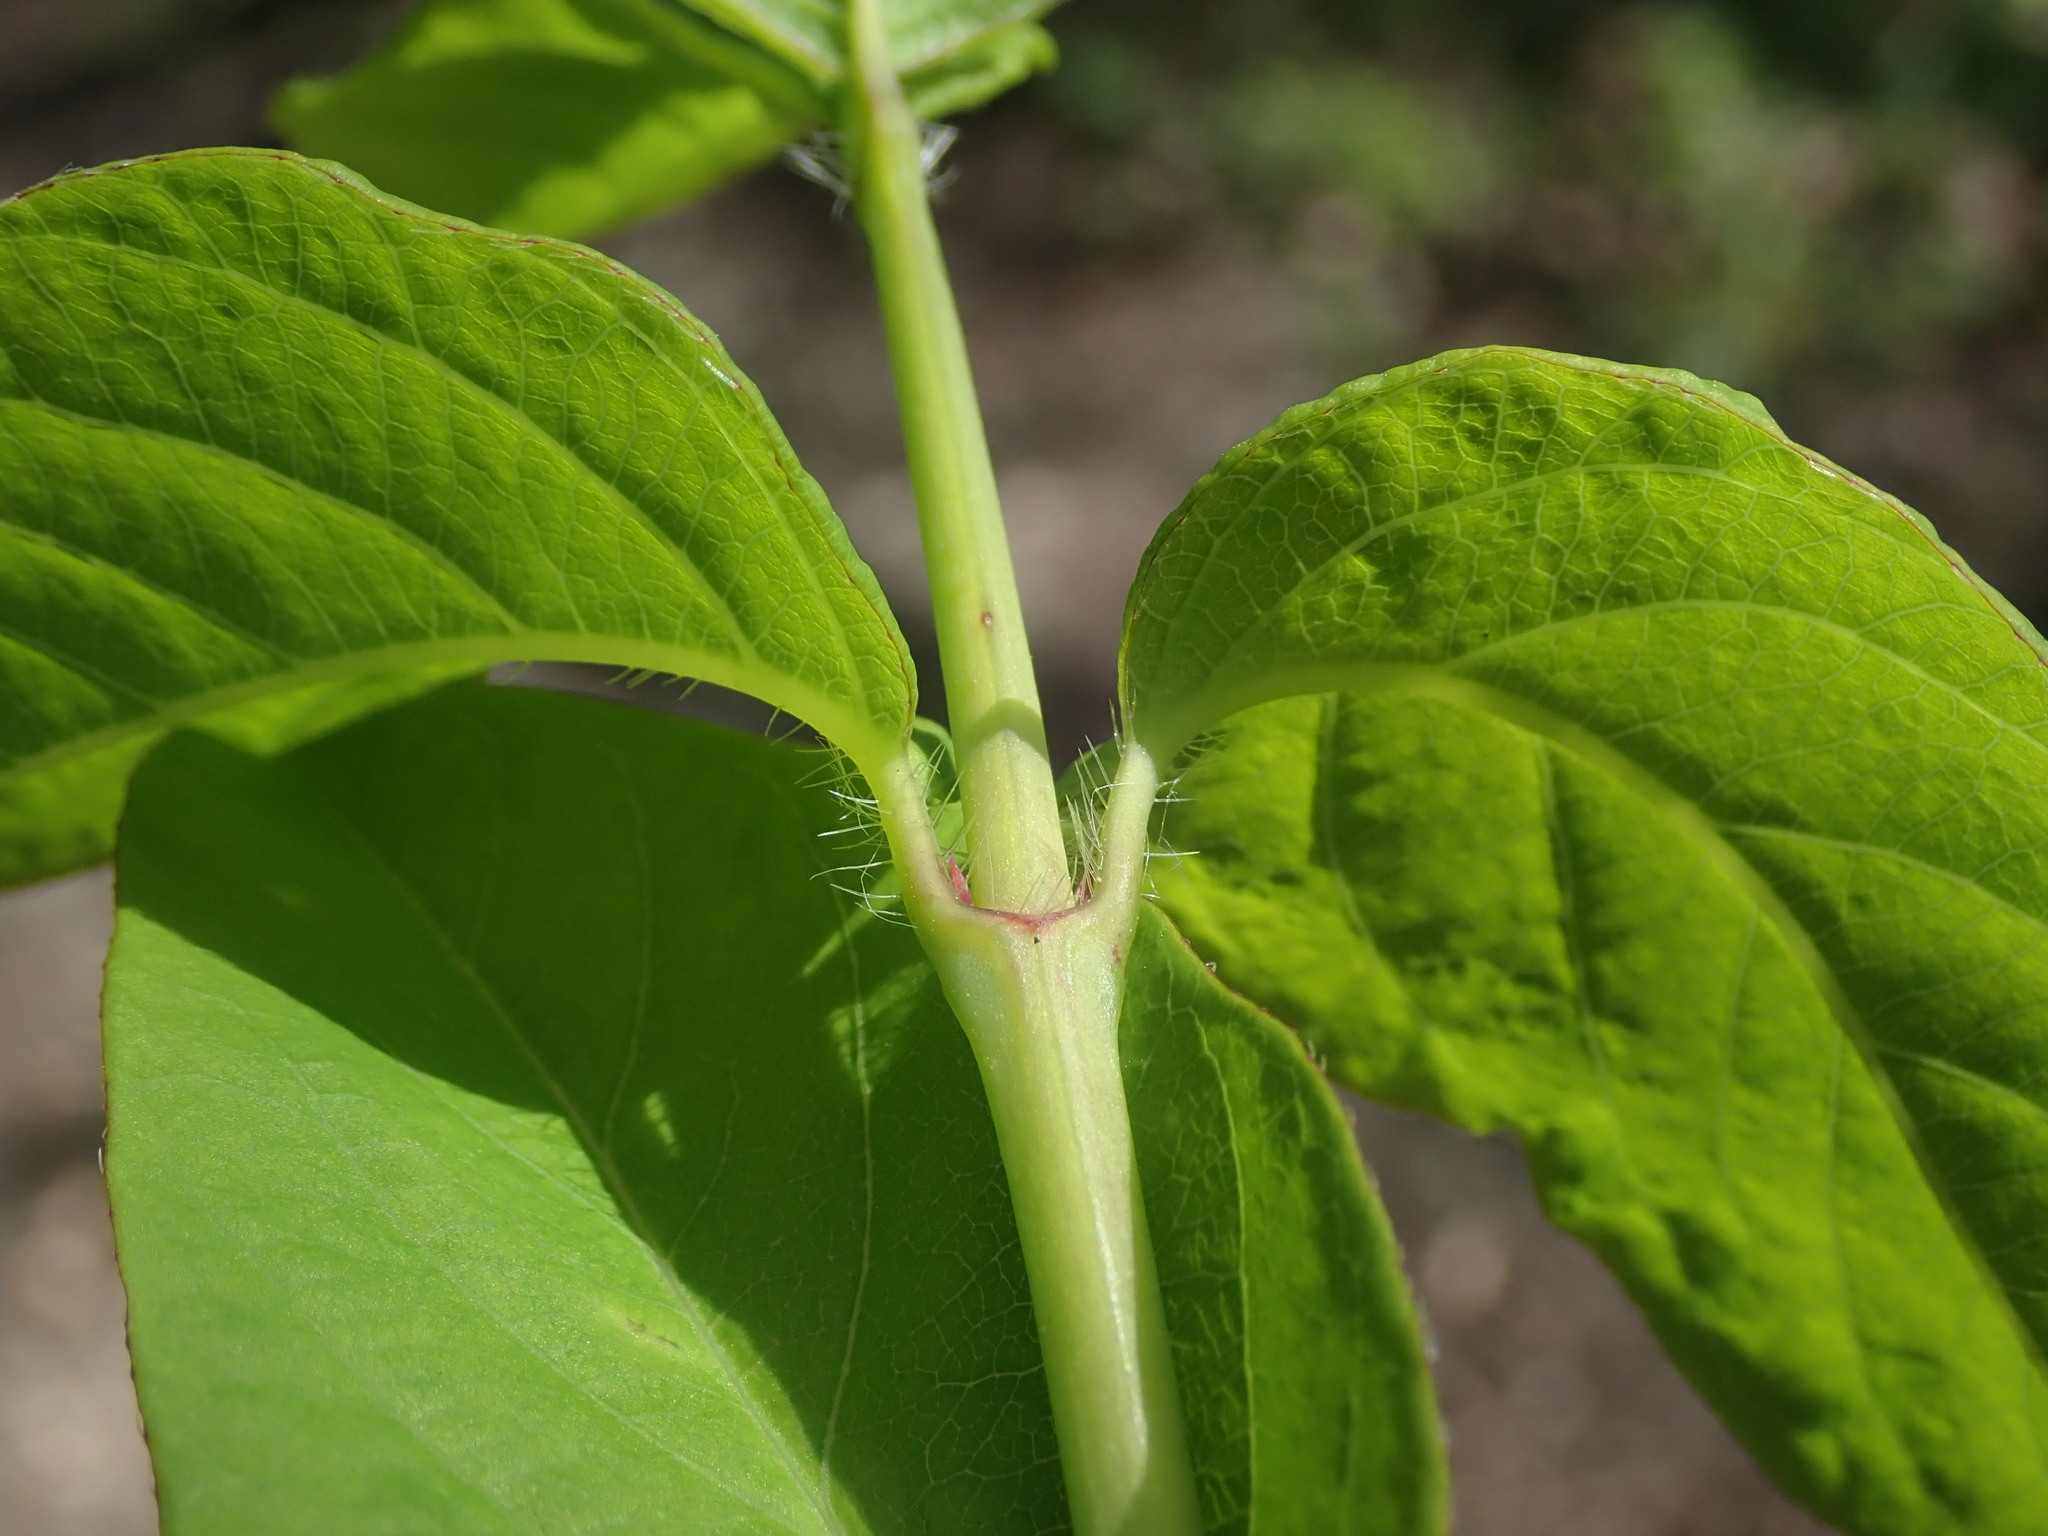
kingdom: Plantae
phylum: Tracheophyta
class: Magnoliopsida
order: Dipsacales
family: Caprifoliaceae
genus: Lonicera
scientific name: Lonicera japonica
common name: Japanese honeysuckle
